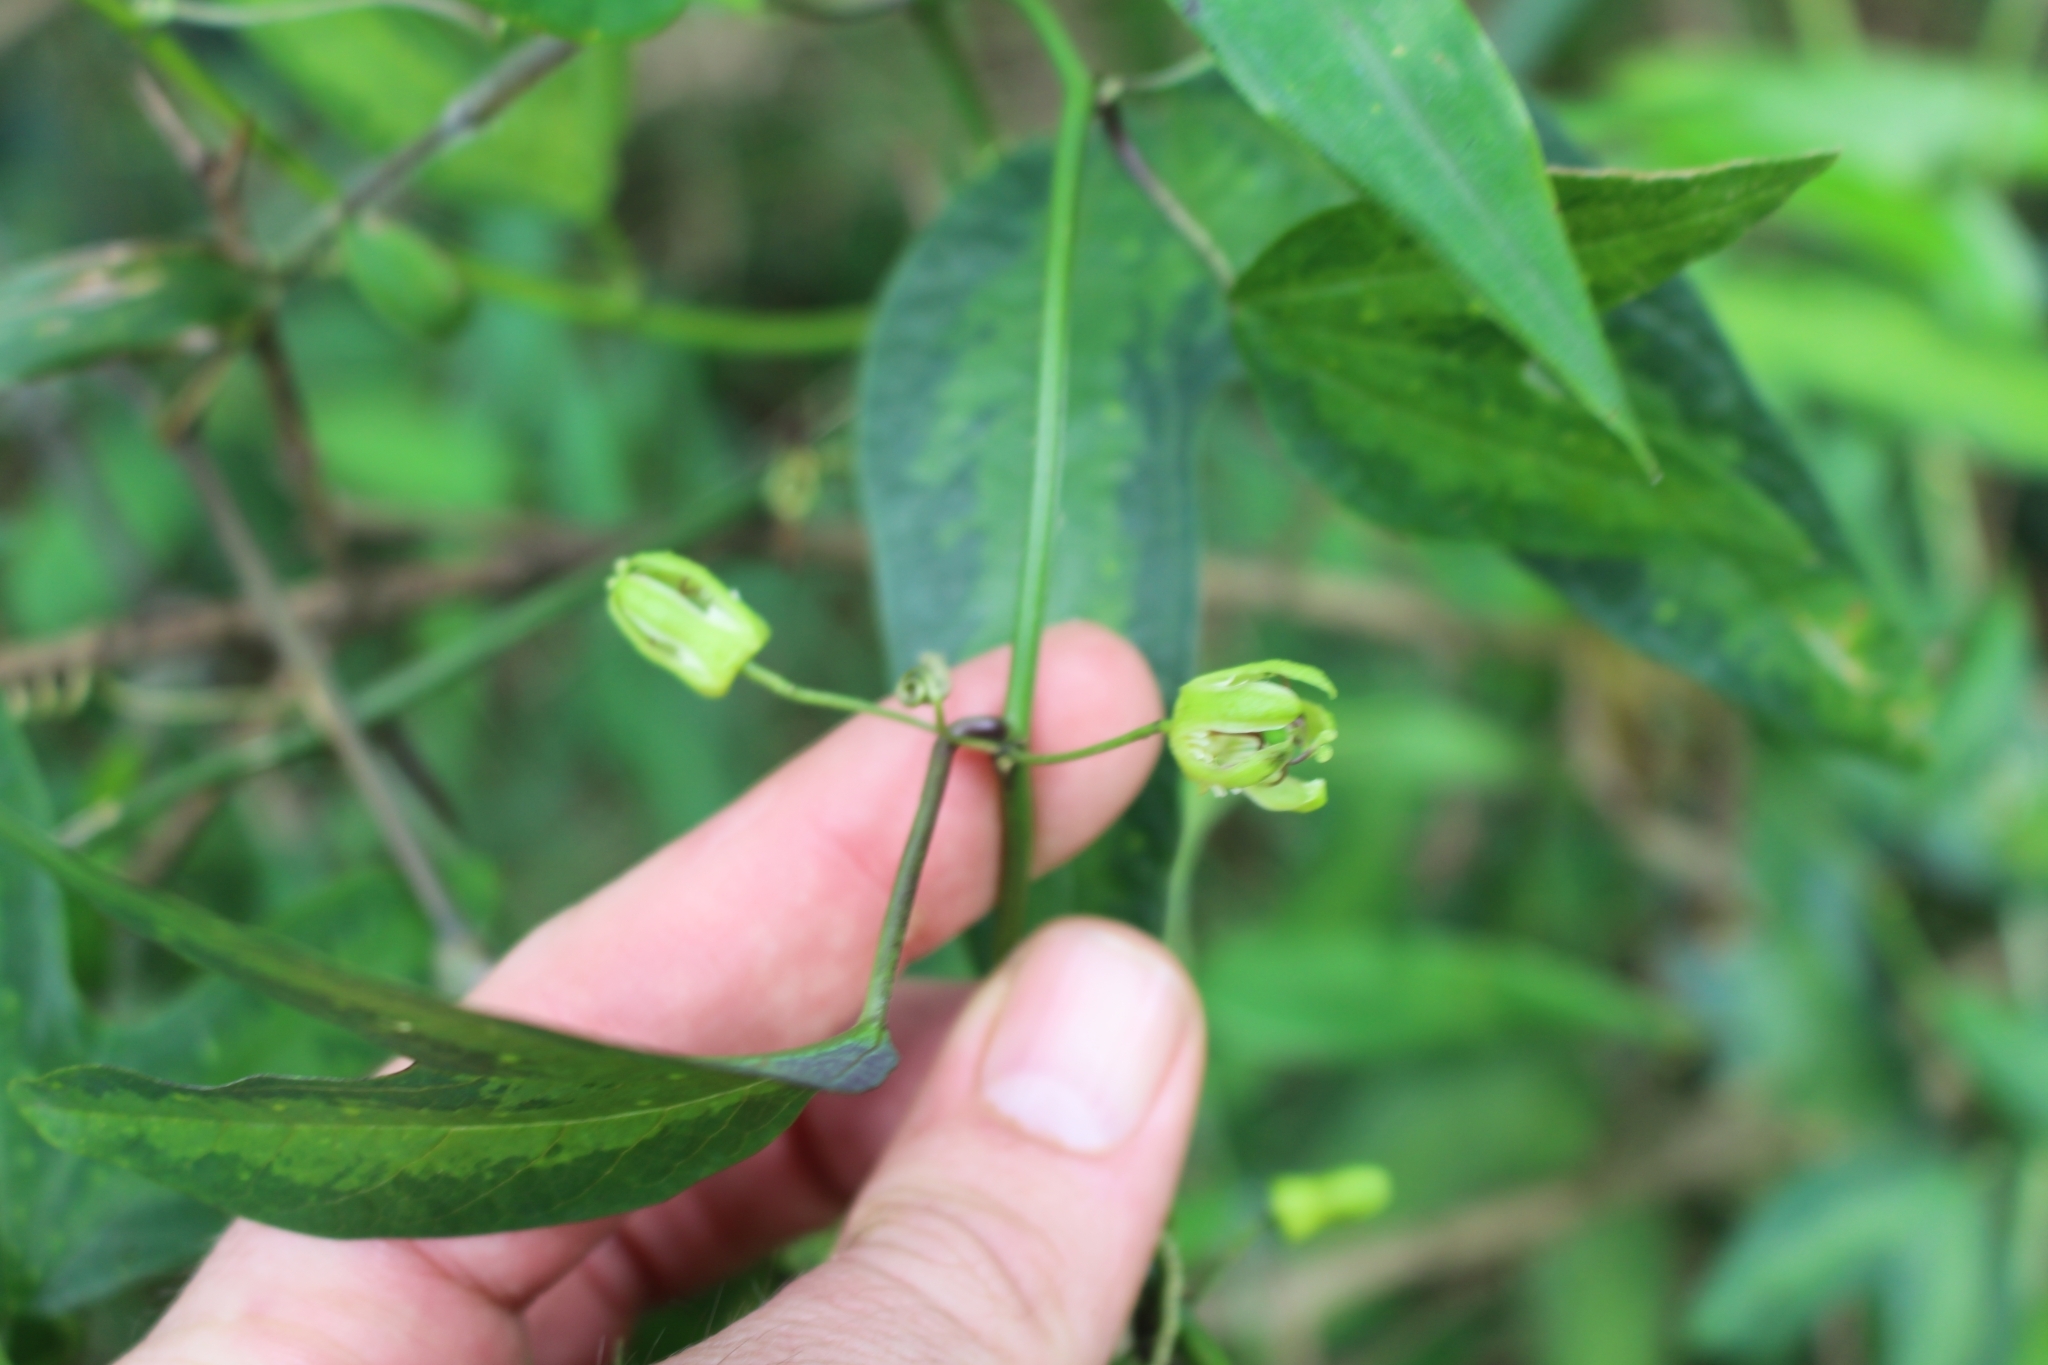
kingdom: Plantae
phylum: Tracheophyta
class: Magnoliopsida
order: Malpighiales
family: Passifloraceae
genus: Passiflora
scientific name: Passiflora apetala
